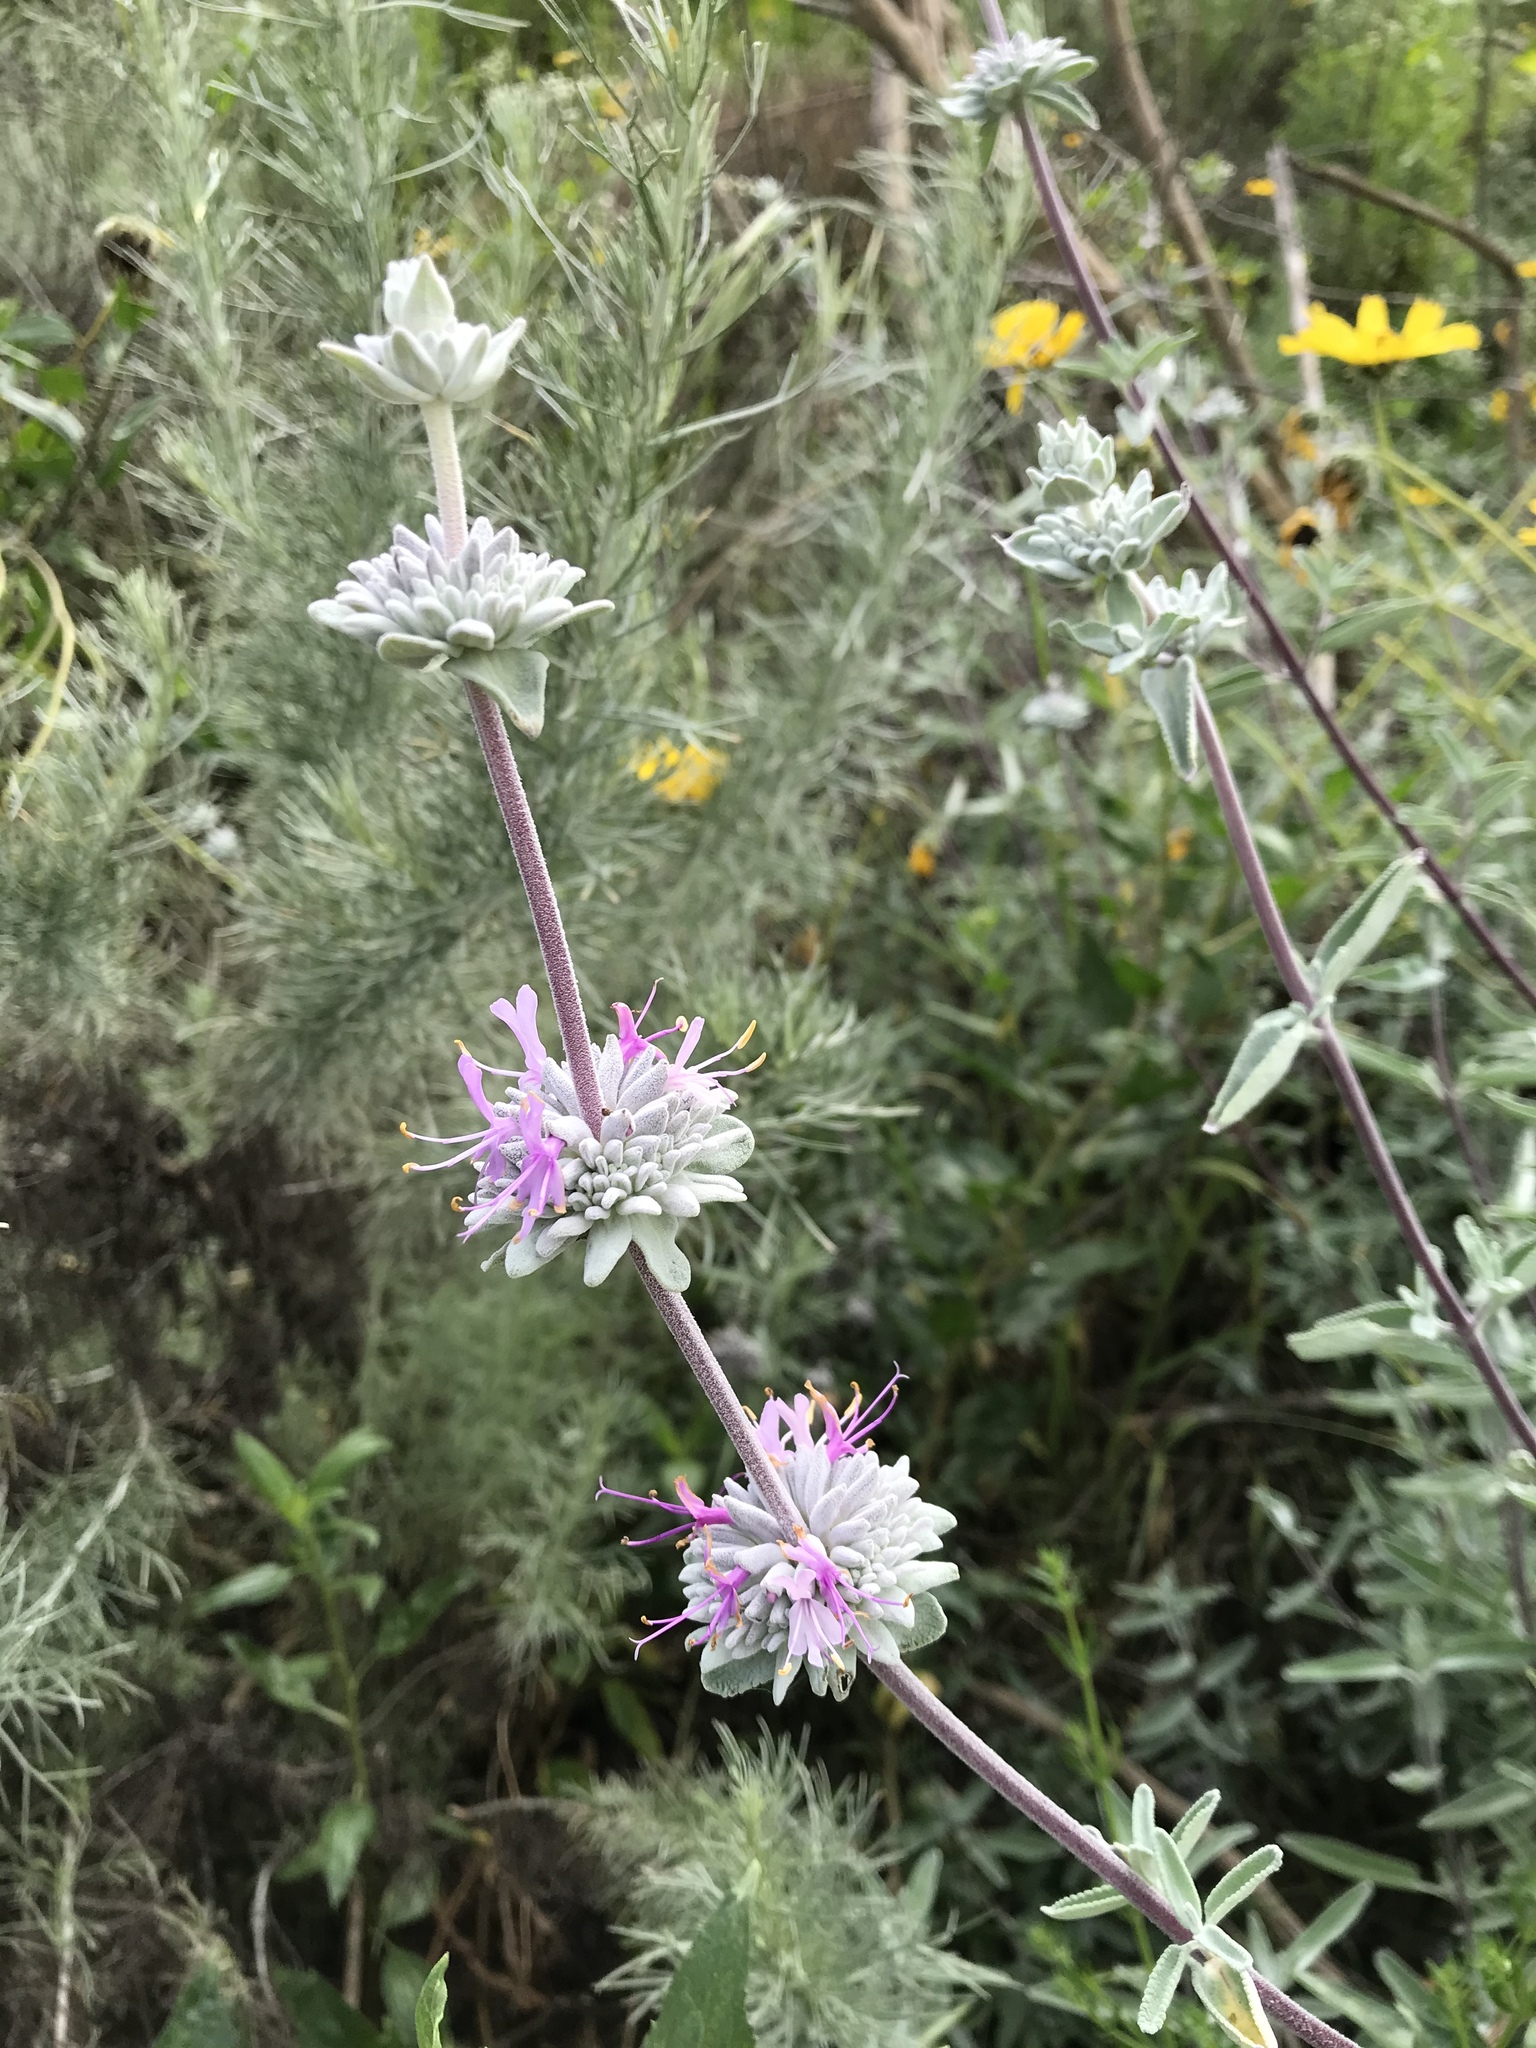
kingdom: Plantae
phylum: Tracheophyta
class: Magnoliopsida
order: Lamiales
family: Lamiaceae
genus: Salvia
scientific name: Salvia leucophylla
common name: Purple sage
